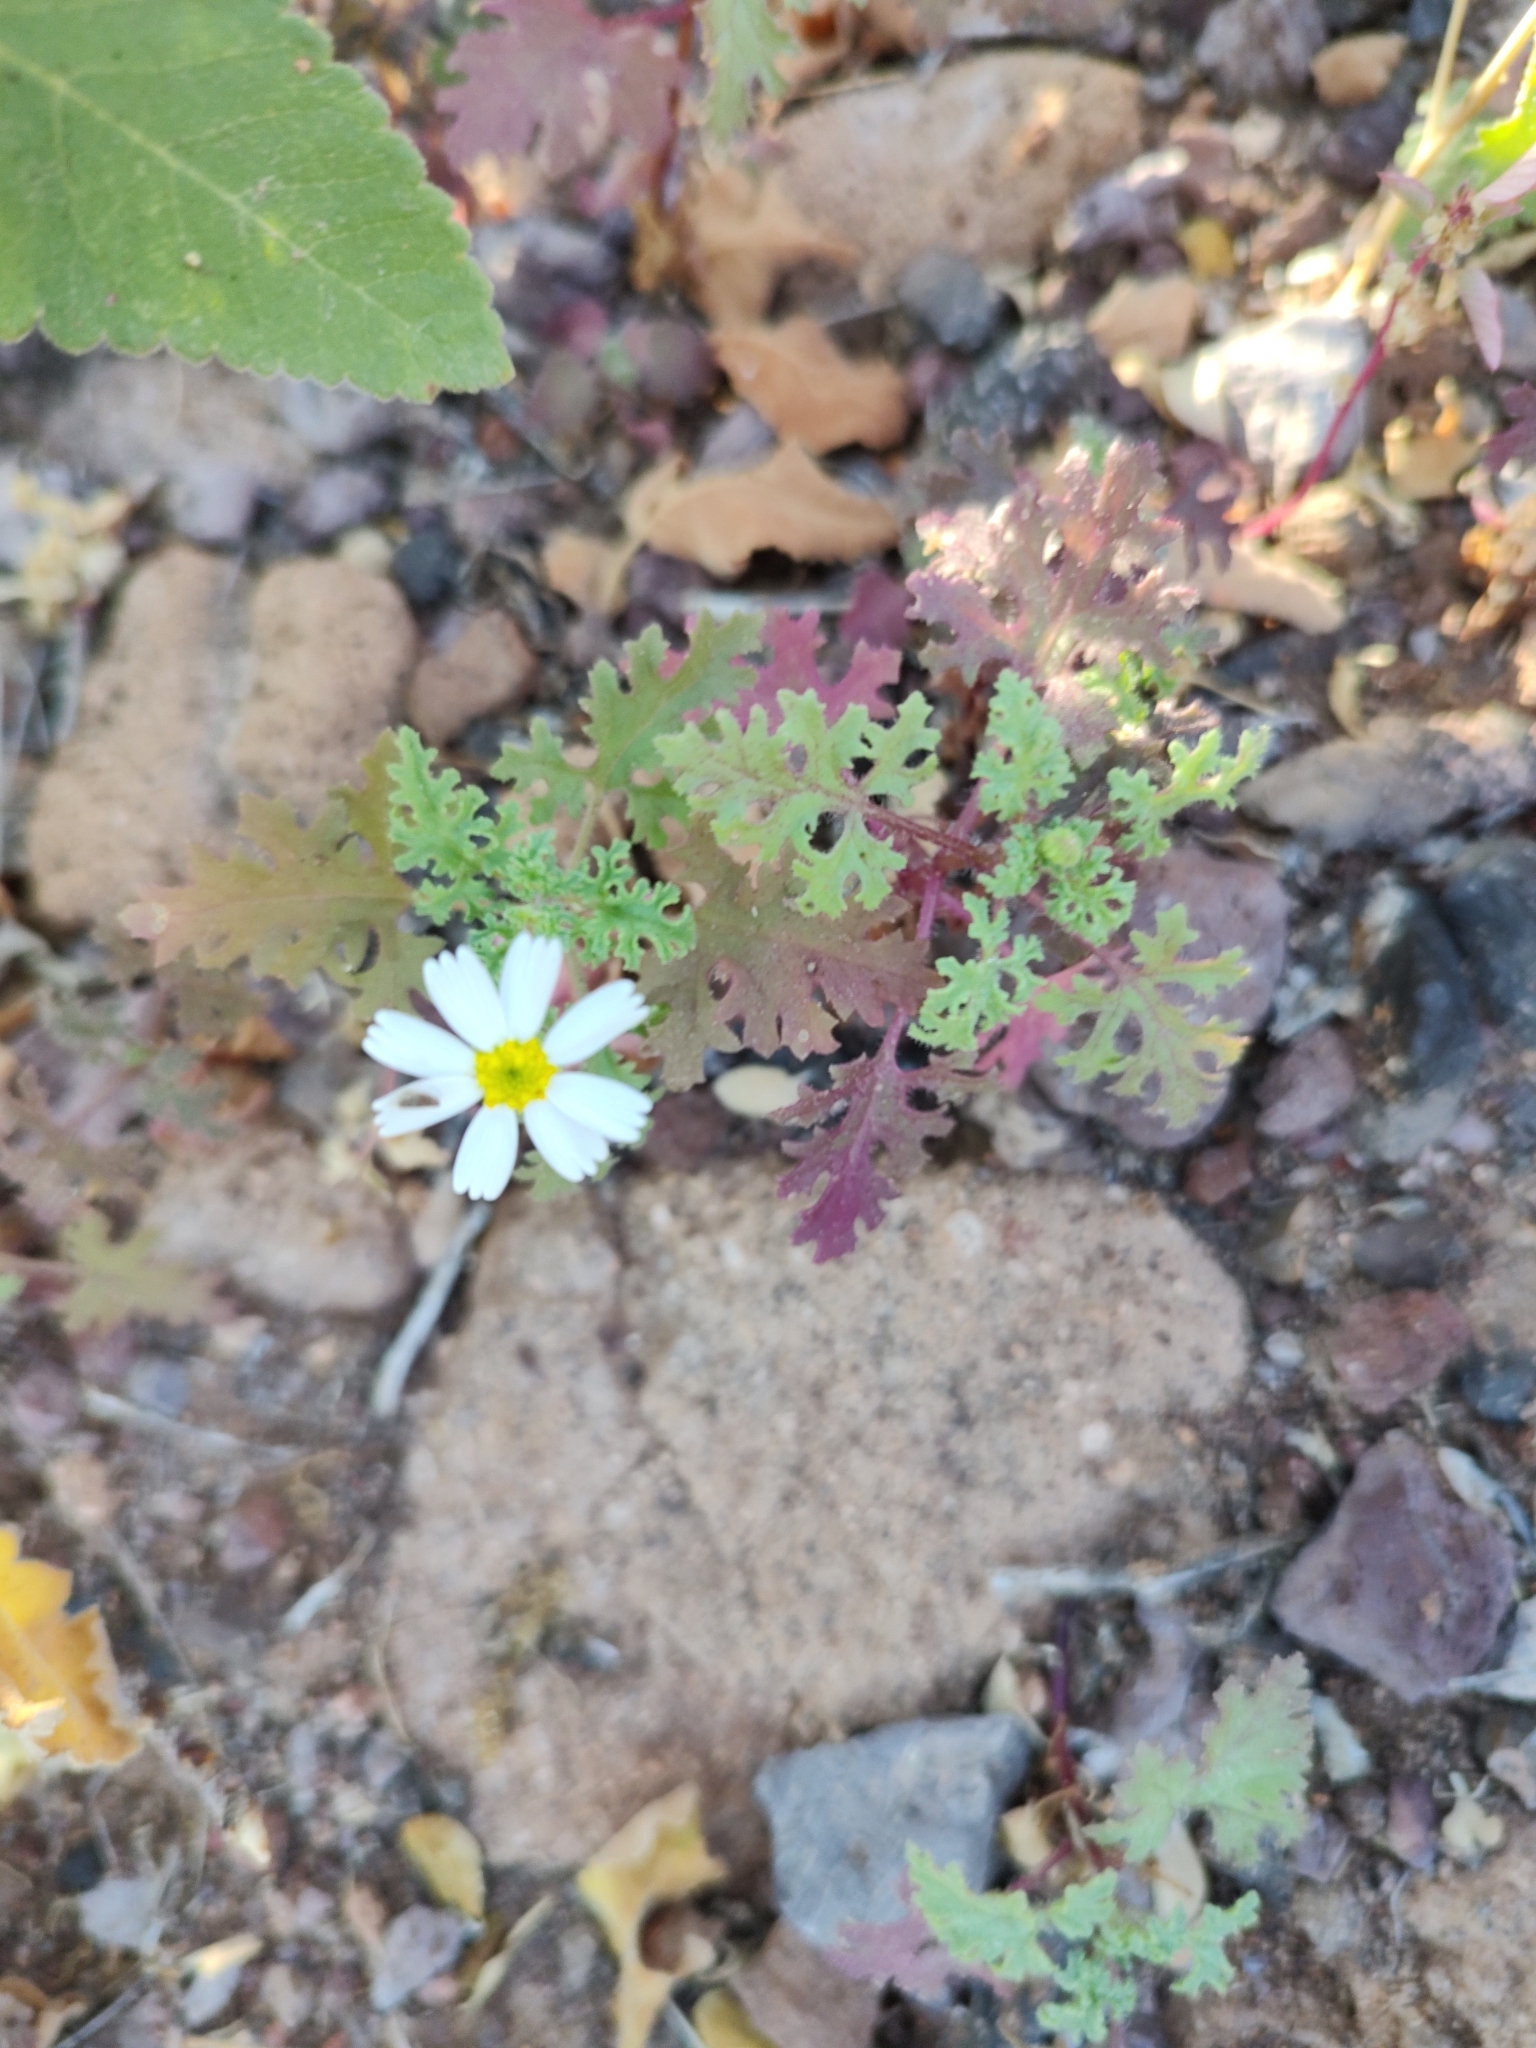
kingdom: Plantae
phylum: Tracheophyta
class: Magnoliopsida
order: Asterales
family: Asteraceae
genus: Perityle
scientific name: Perityle crassifolia
